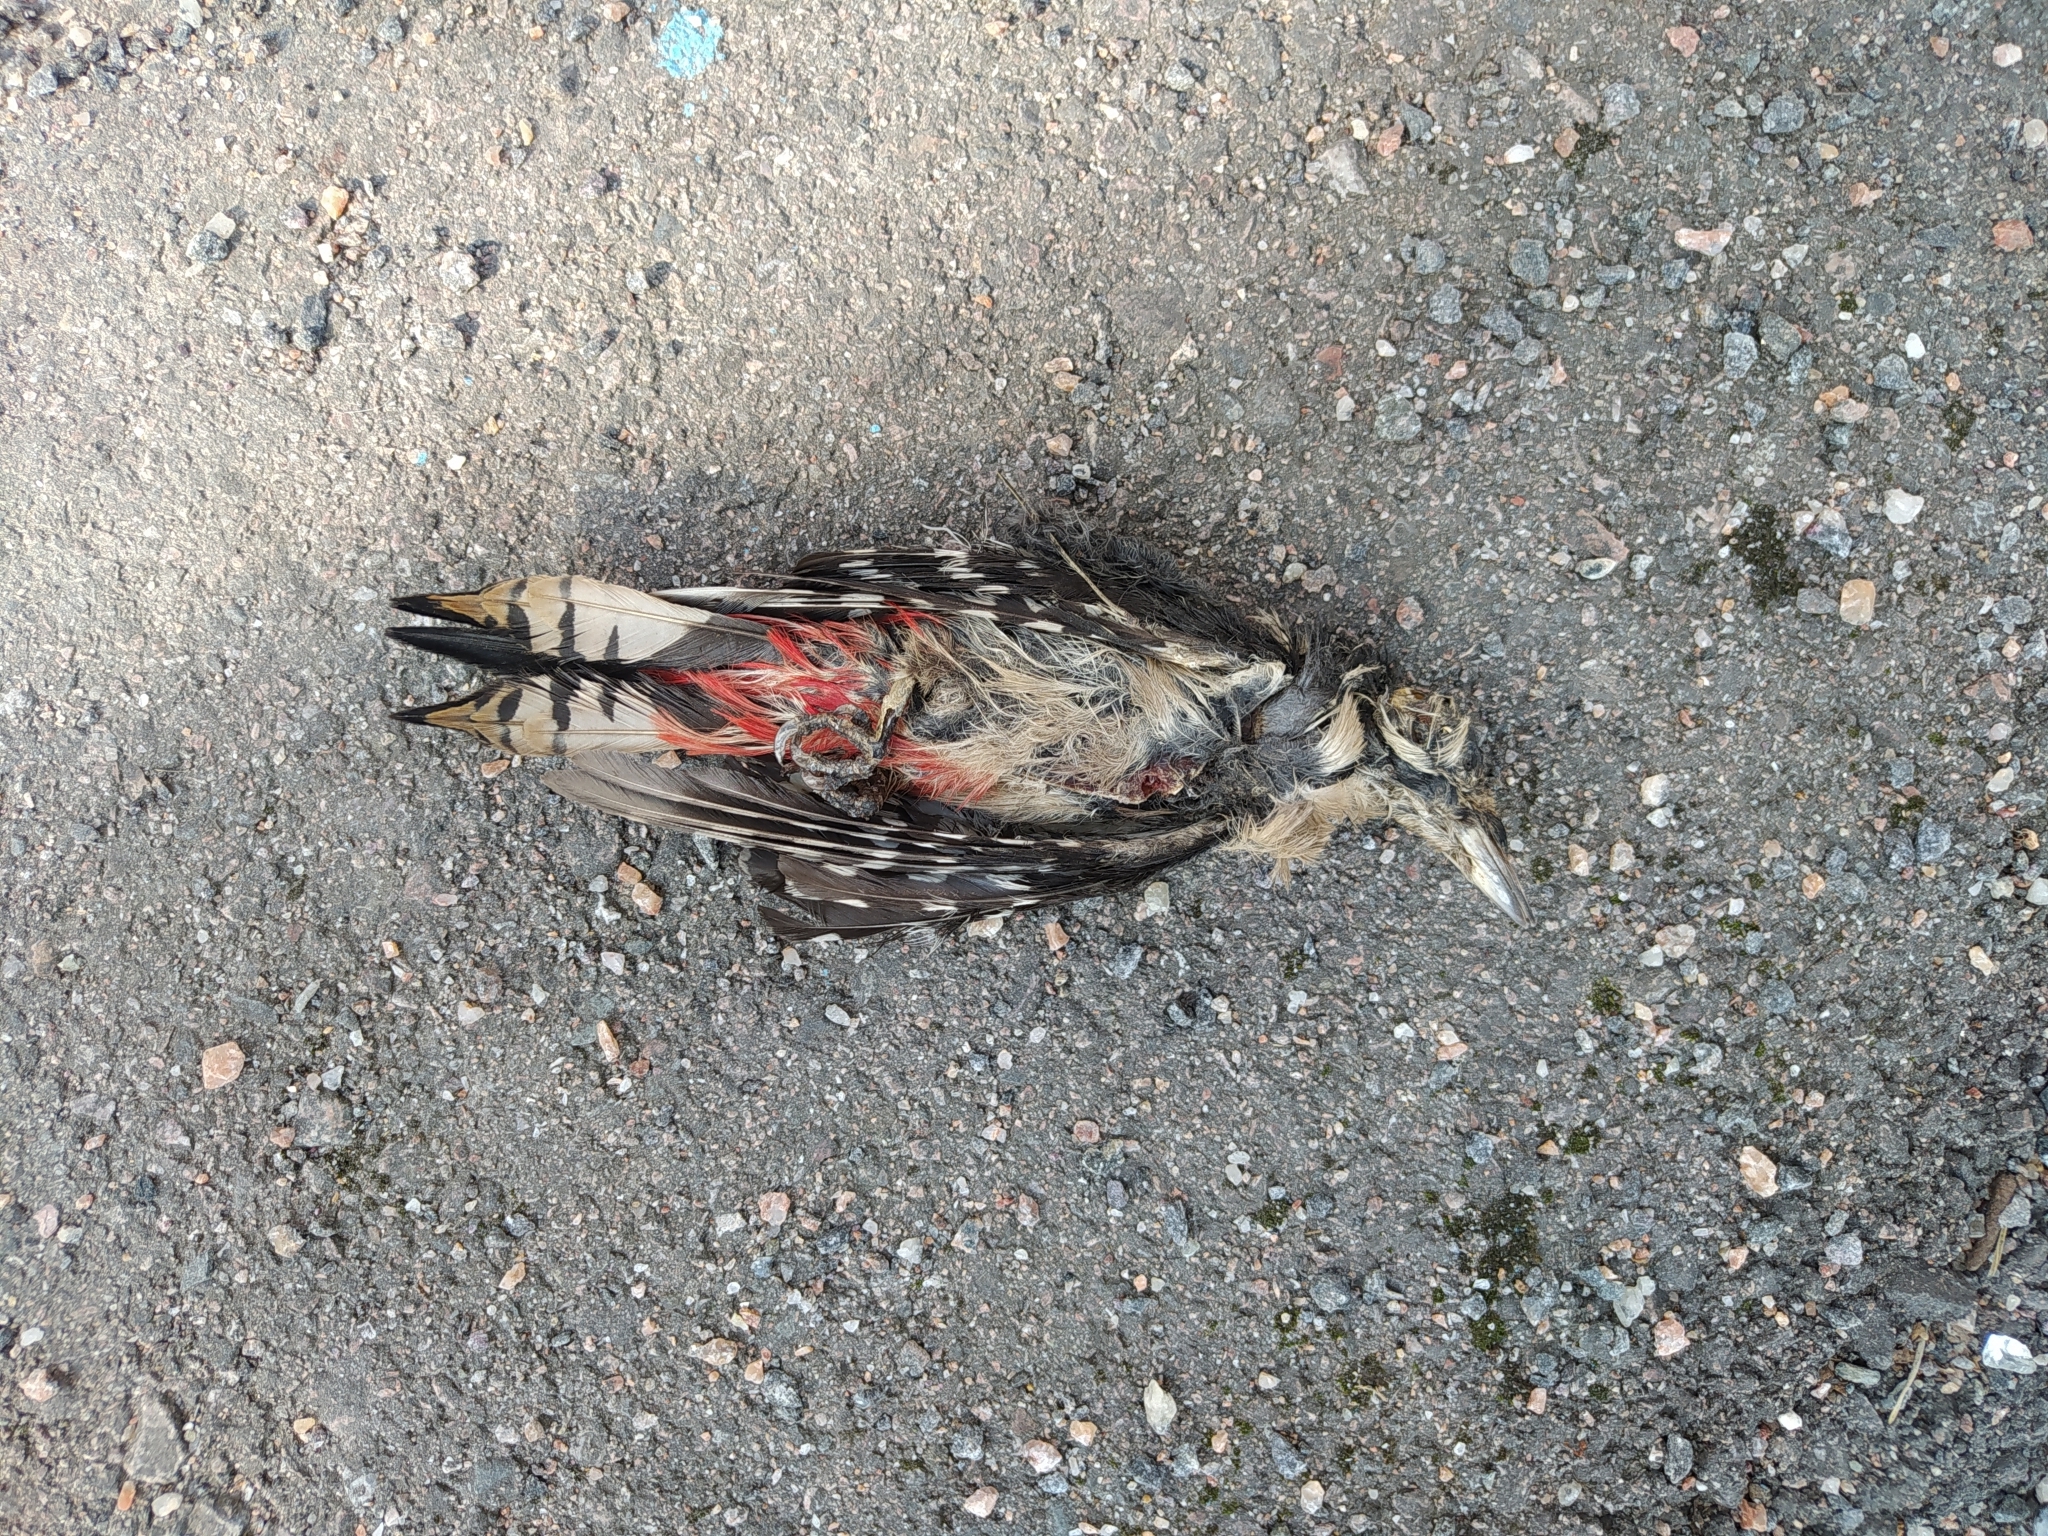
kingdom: Animalia
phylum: Chordata
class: Aves
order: Piciformes
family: Picidae
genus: Dendrocopos
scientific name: Dendrocopos major
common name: Great spotted woodpecker
